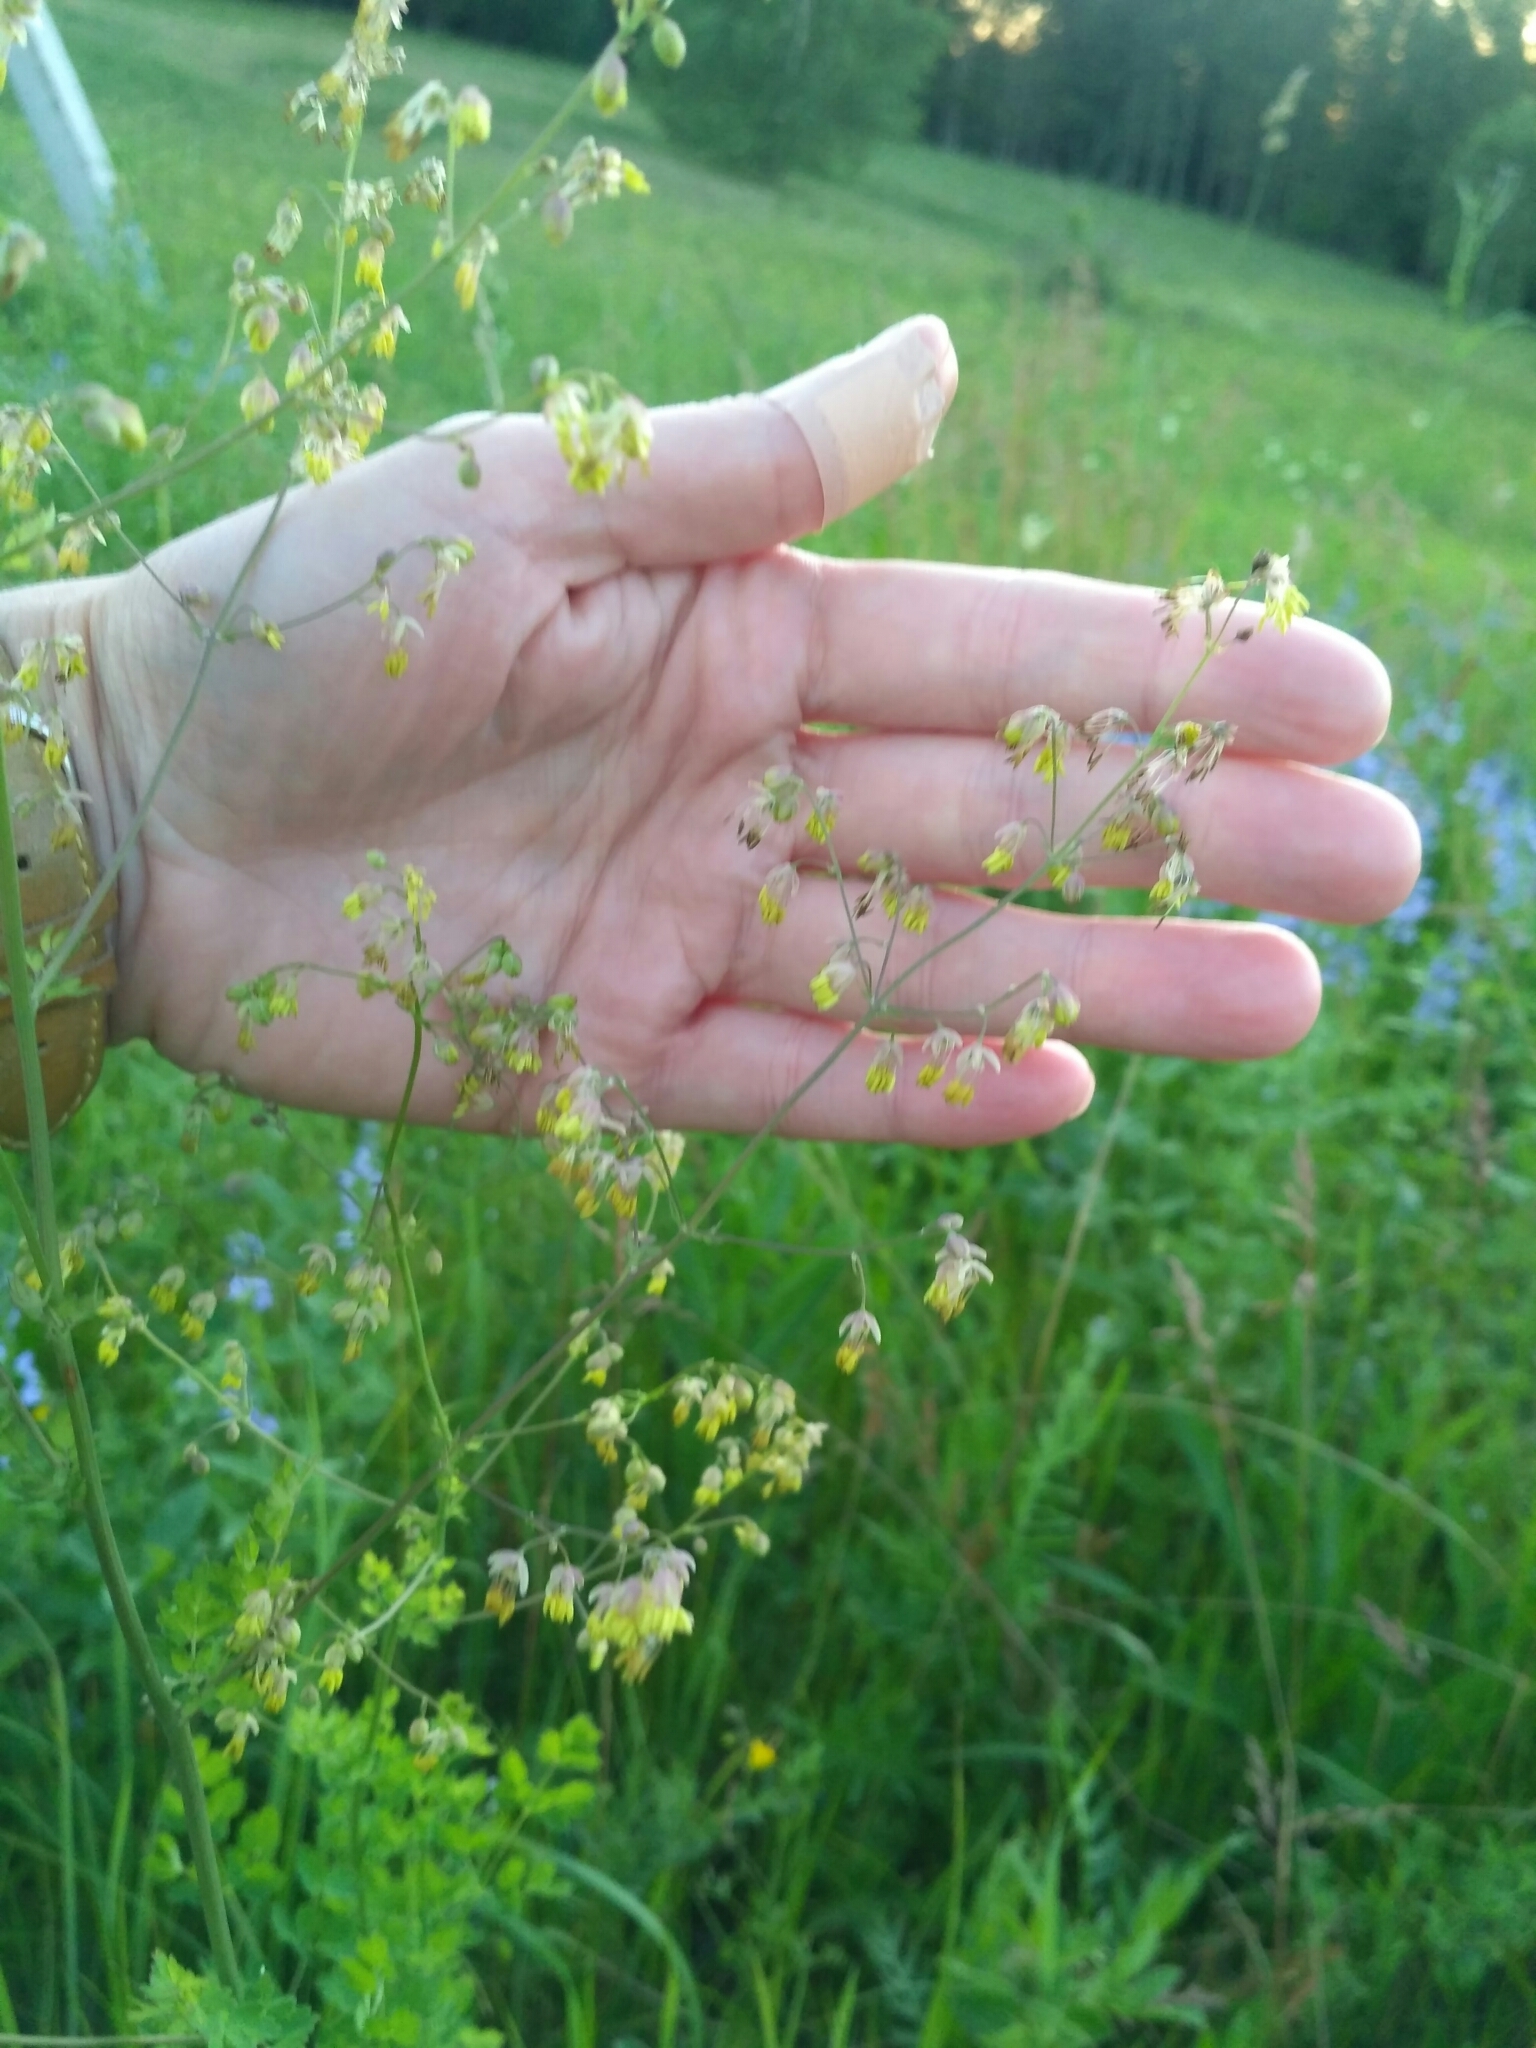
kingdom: Plantae
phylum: Tracheophyta
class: Magnoliopsida
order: Ranunculales
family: Ranunculaceae
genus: Thalictrum
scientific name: Thalictrum minus
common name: Lesser meadow-rue
